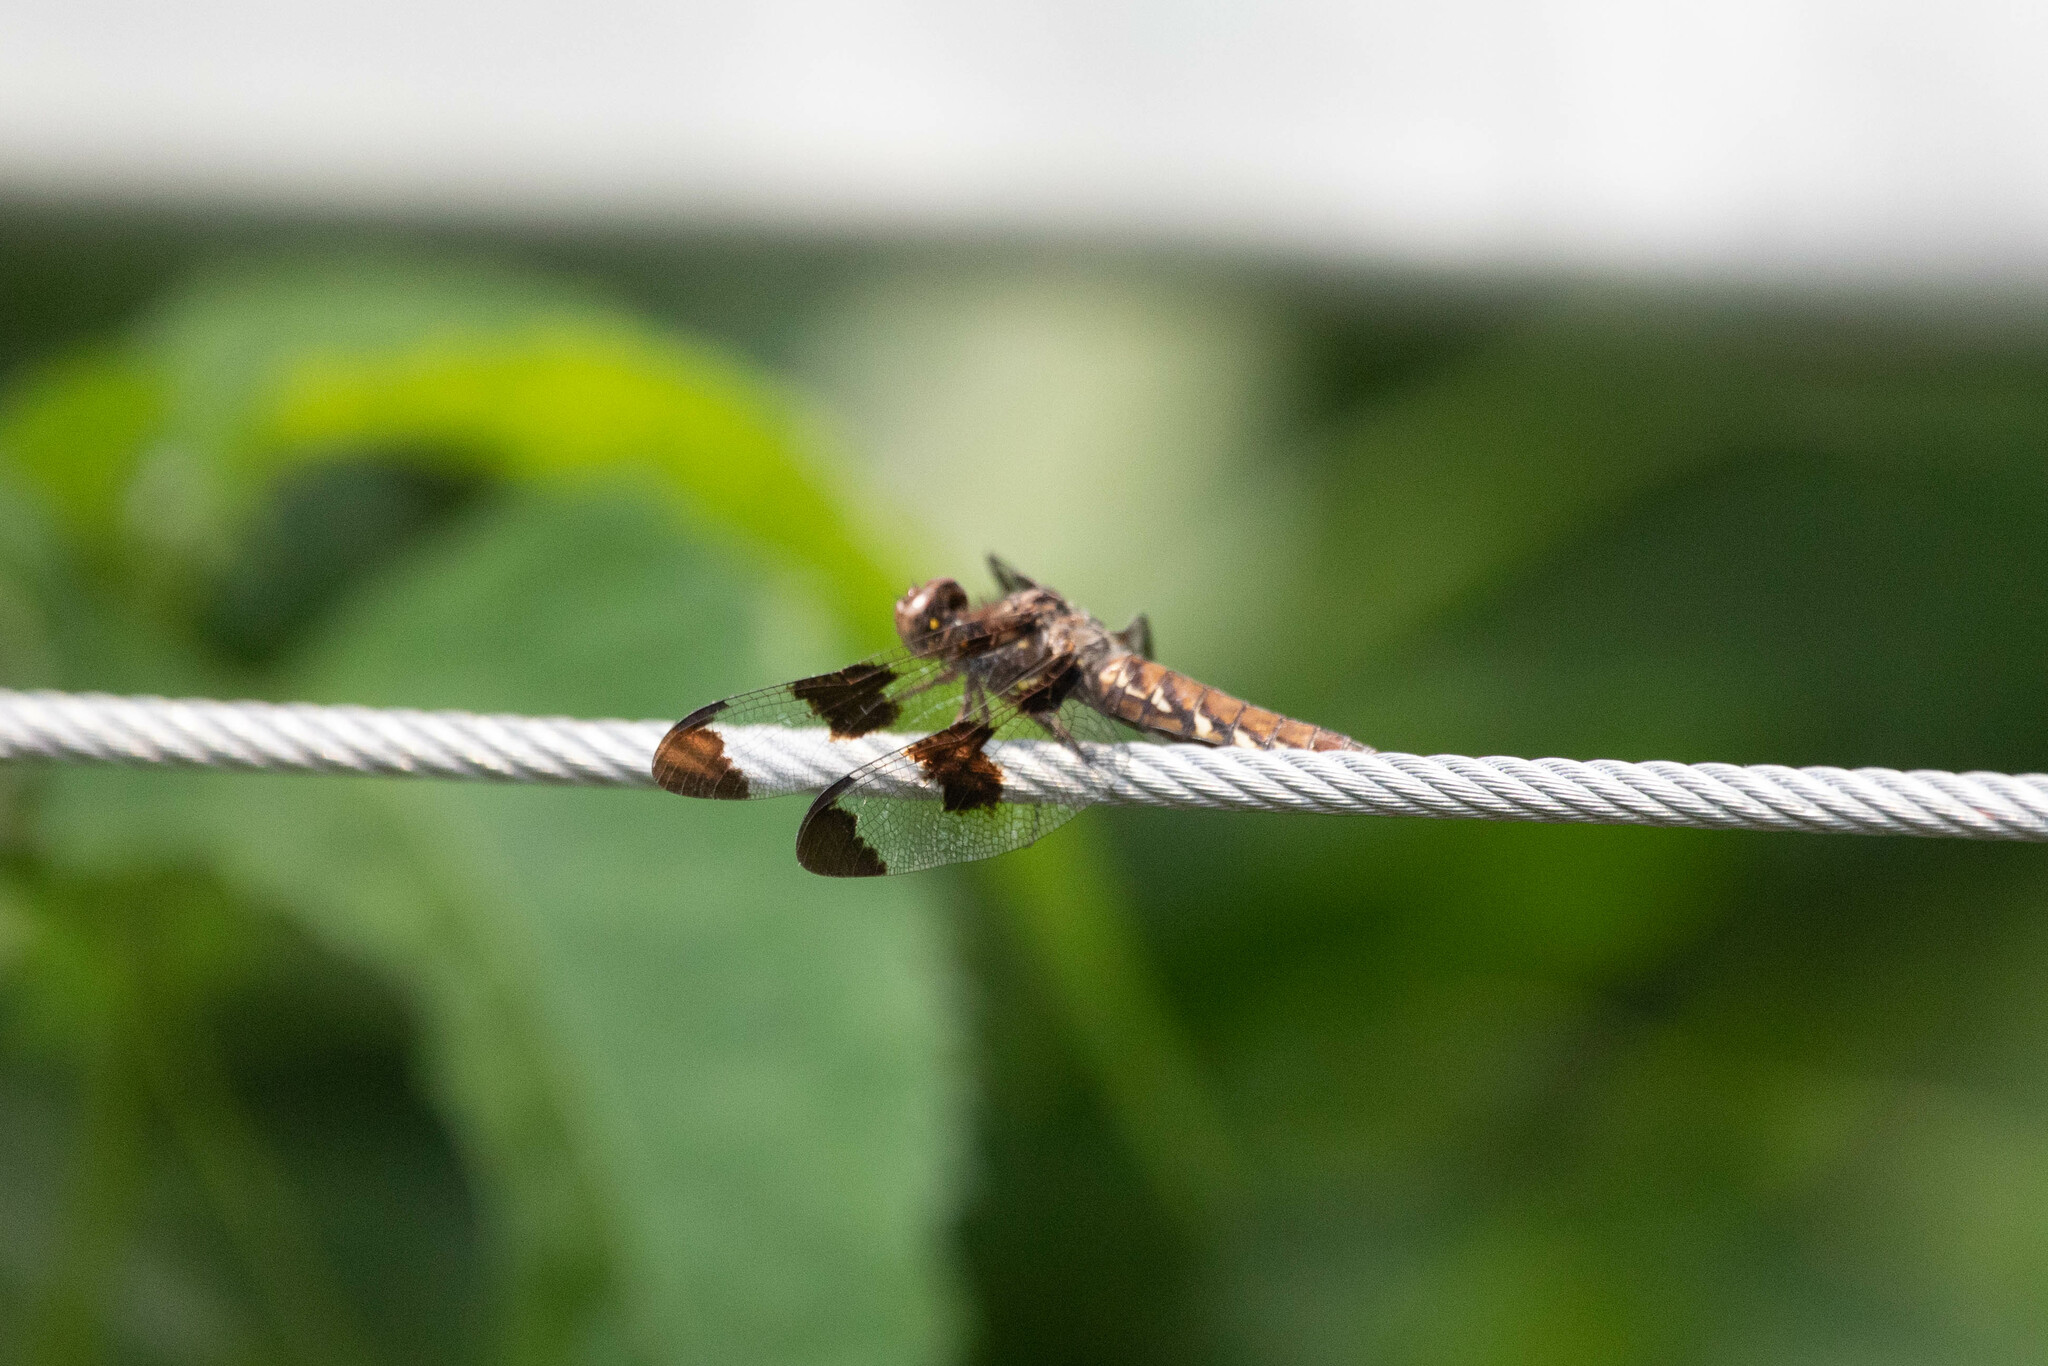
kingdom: Animalia
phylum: Arthropoda
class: Insecta
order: Odonata
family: Libellulidae
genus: Plathemis
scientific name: Plathemis lydia
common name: Common whitetail
